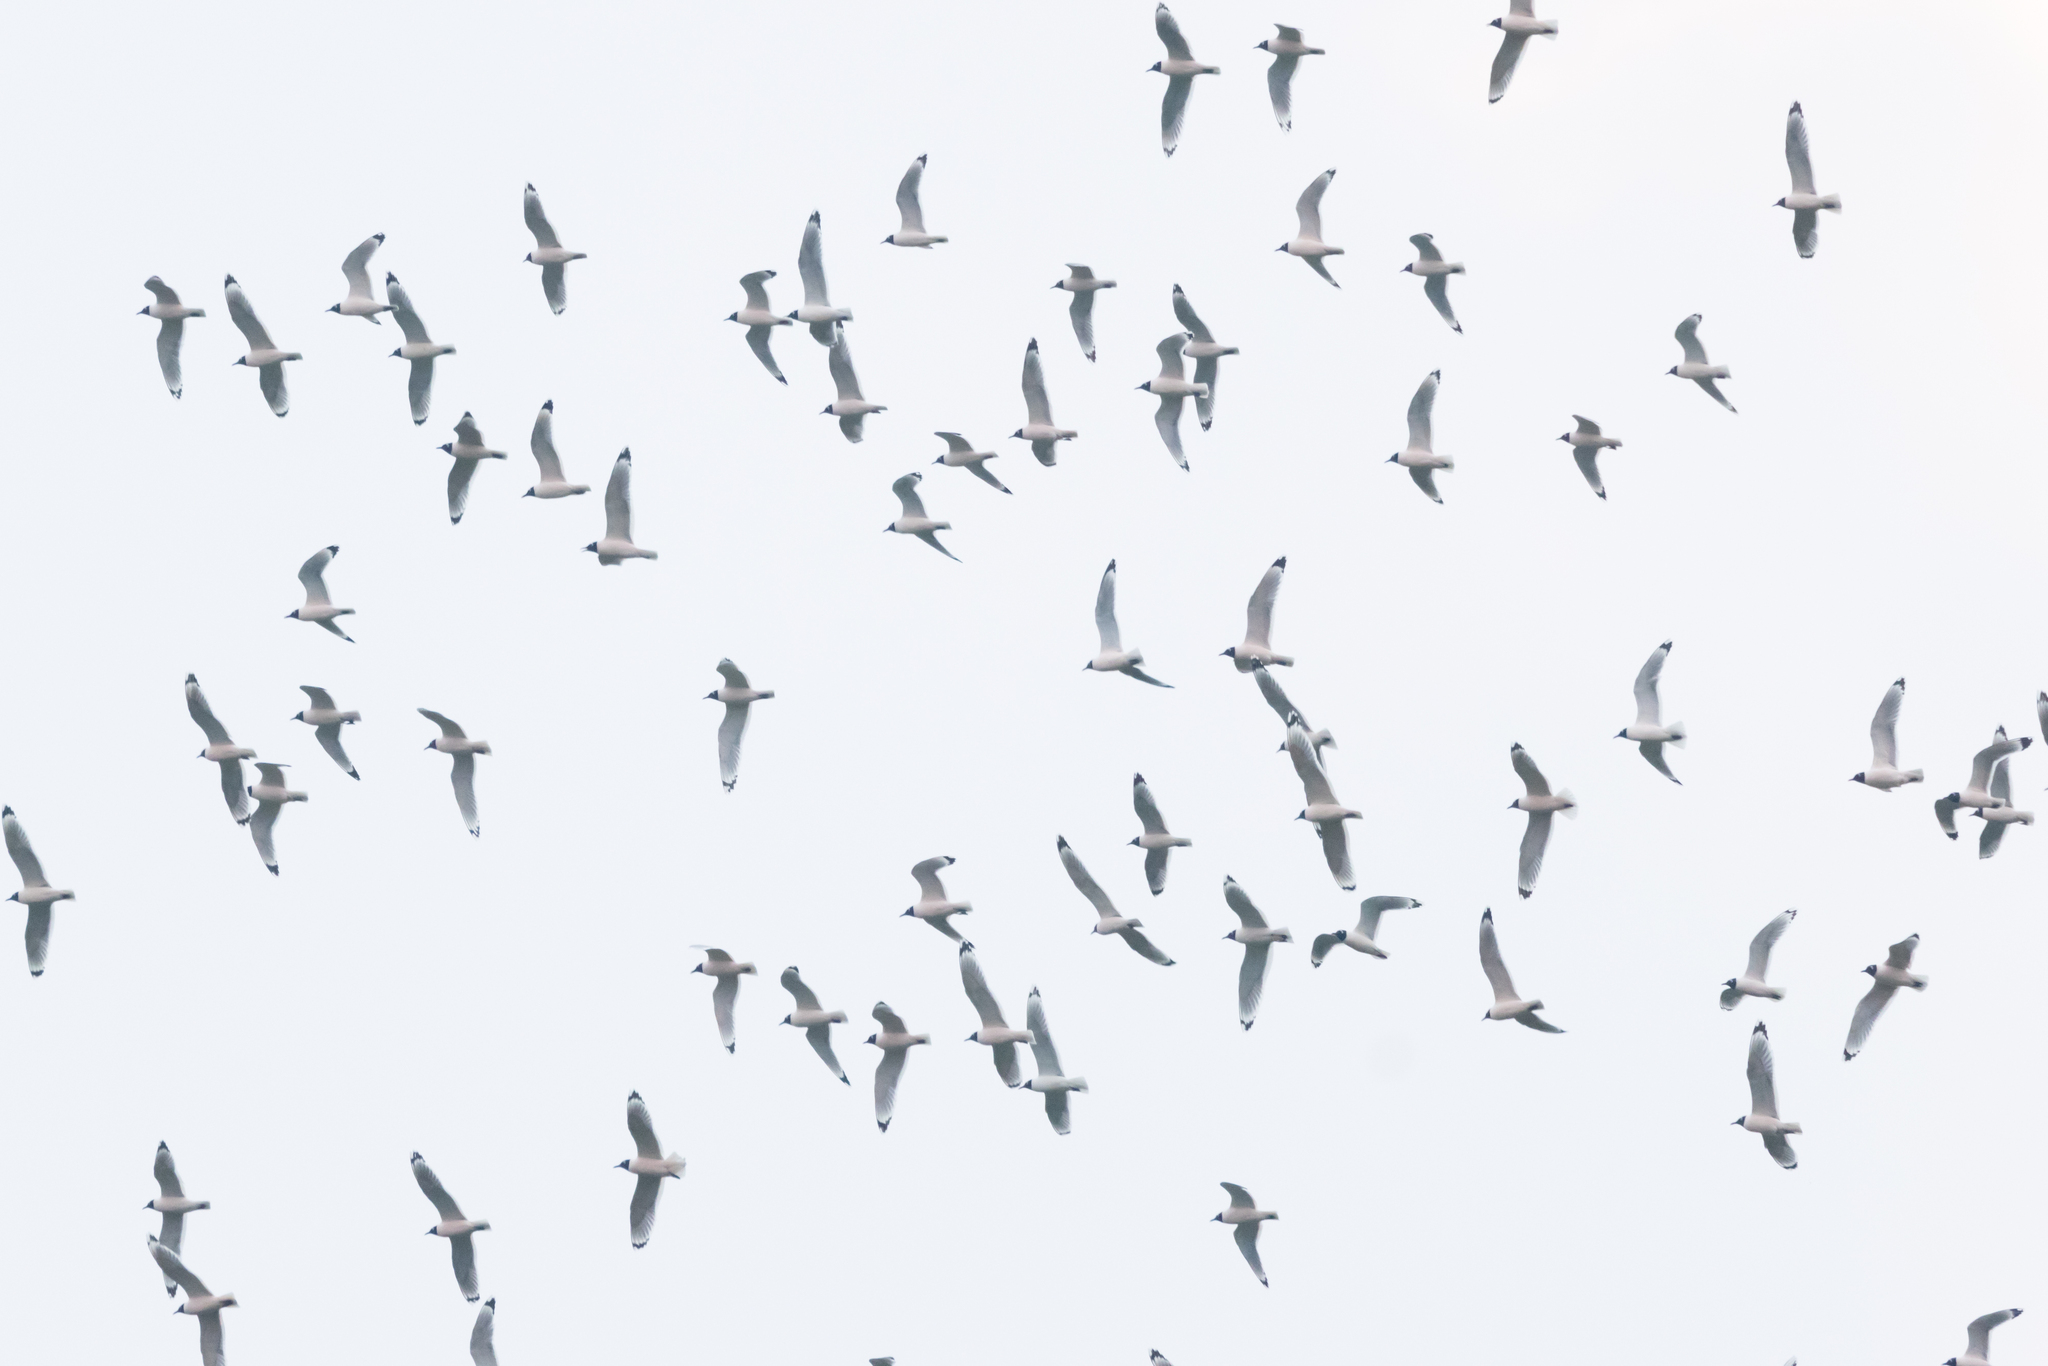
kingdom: Animalia
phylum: Chordata
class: Aves
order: Charadriiformes
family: Laridae
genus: Leucophaeus
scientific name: Leucophaeus pipixcan
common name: Franklin's gull
